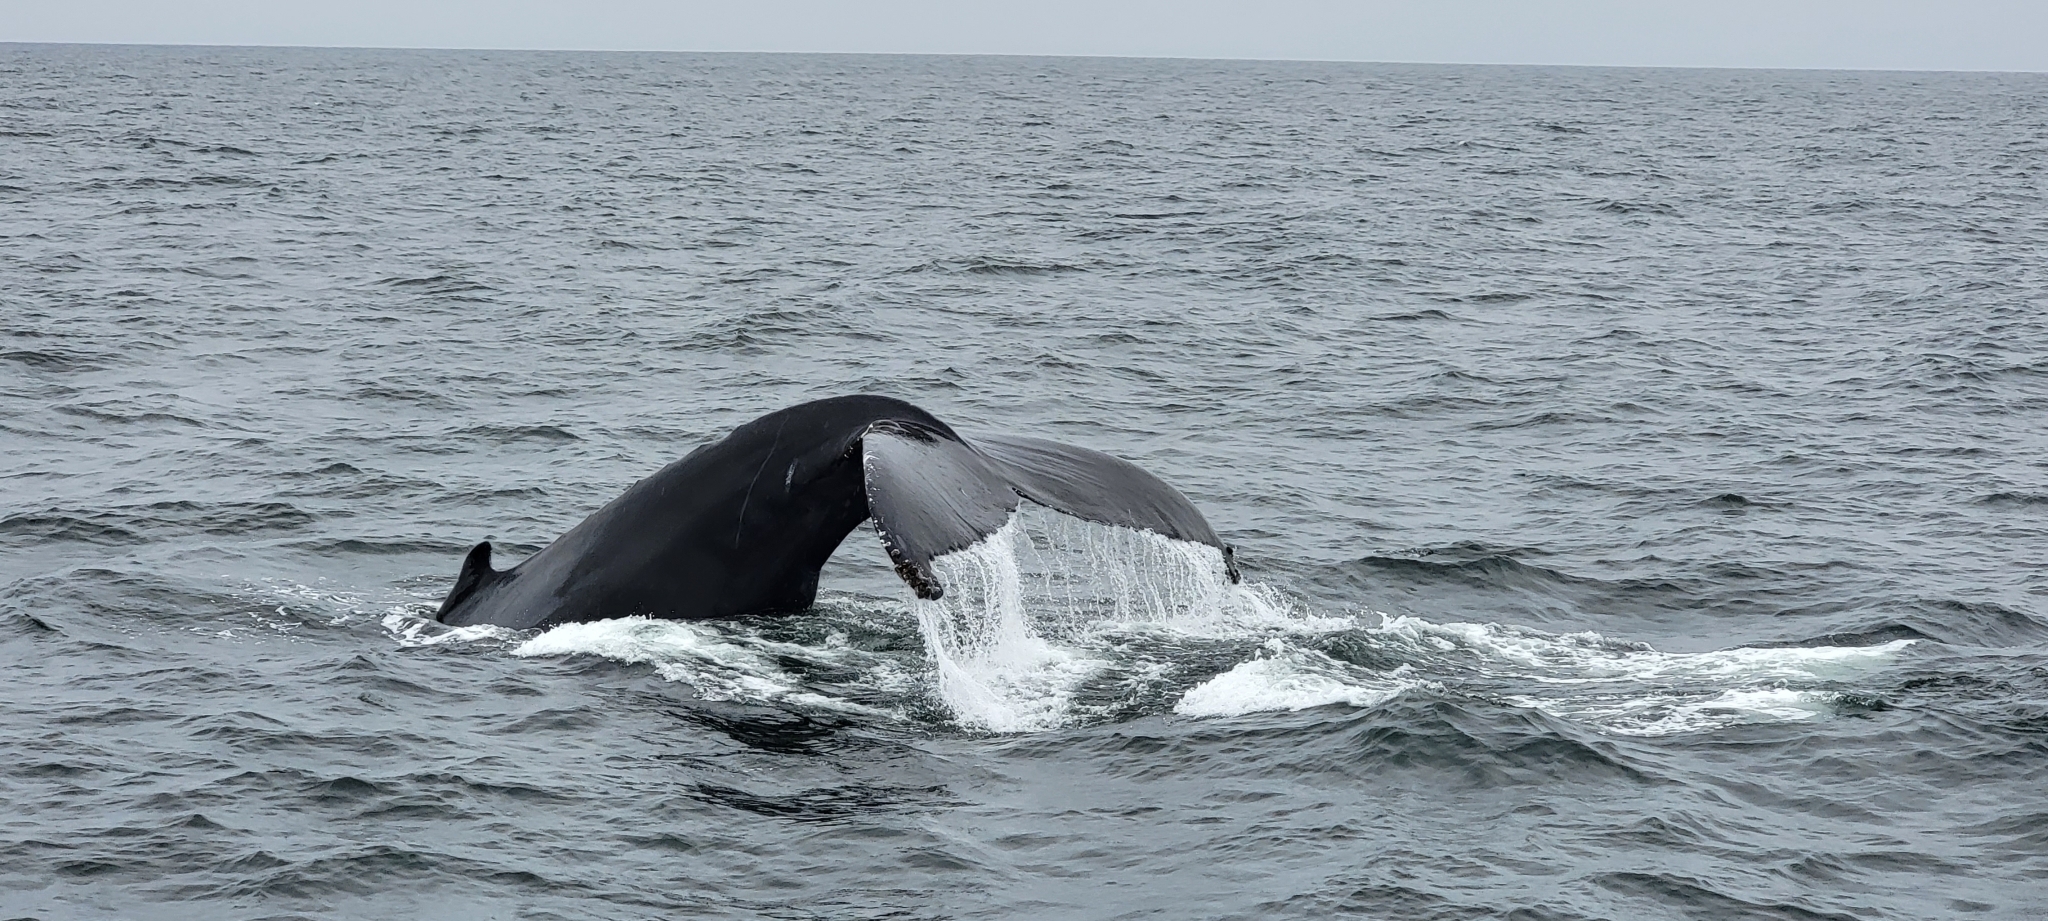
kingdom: Animalia
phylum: Chordata
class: Mammalia
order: Cetacea
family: Balaenopteridae
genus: Megaptera
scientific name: Megaptera novaeangliae
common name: Humpback whale
